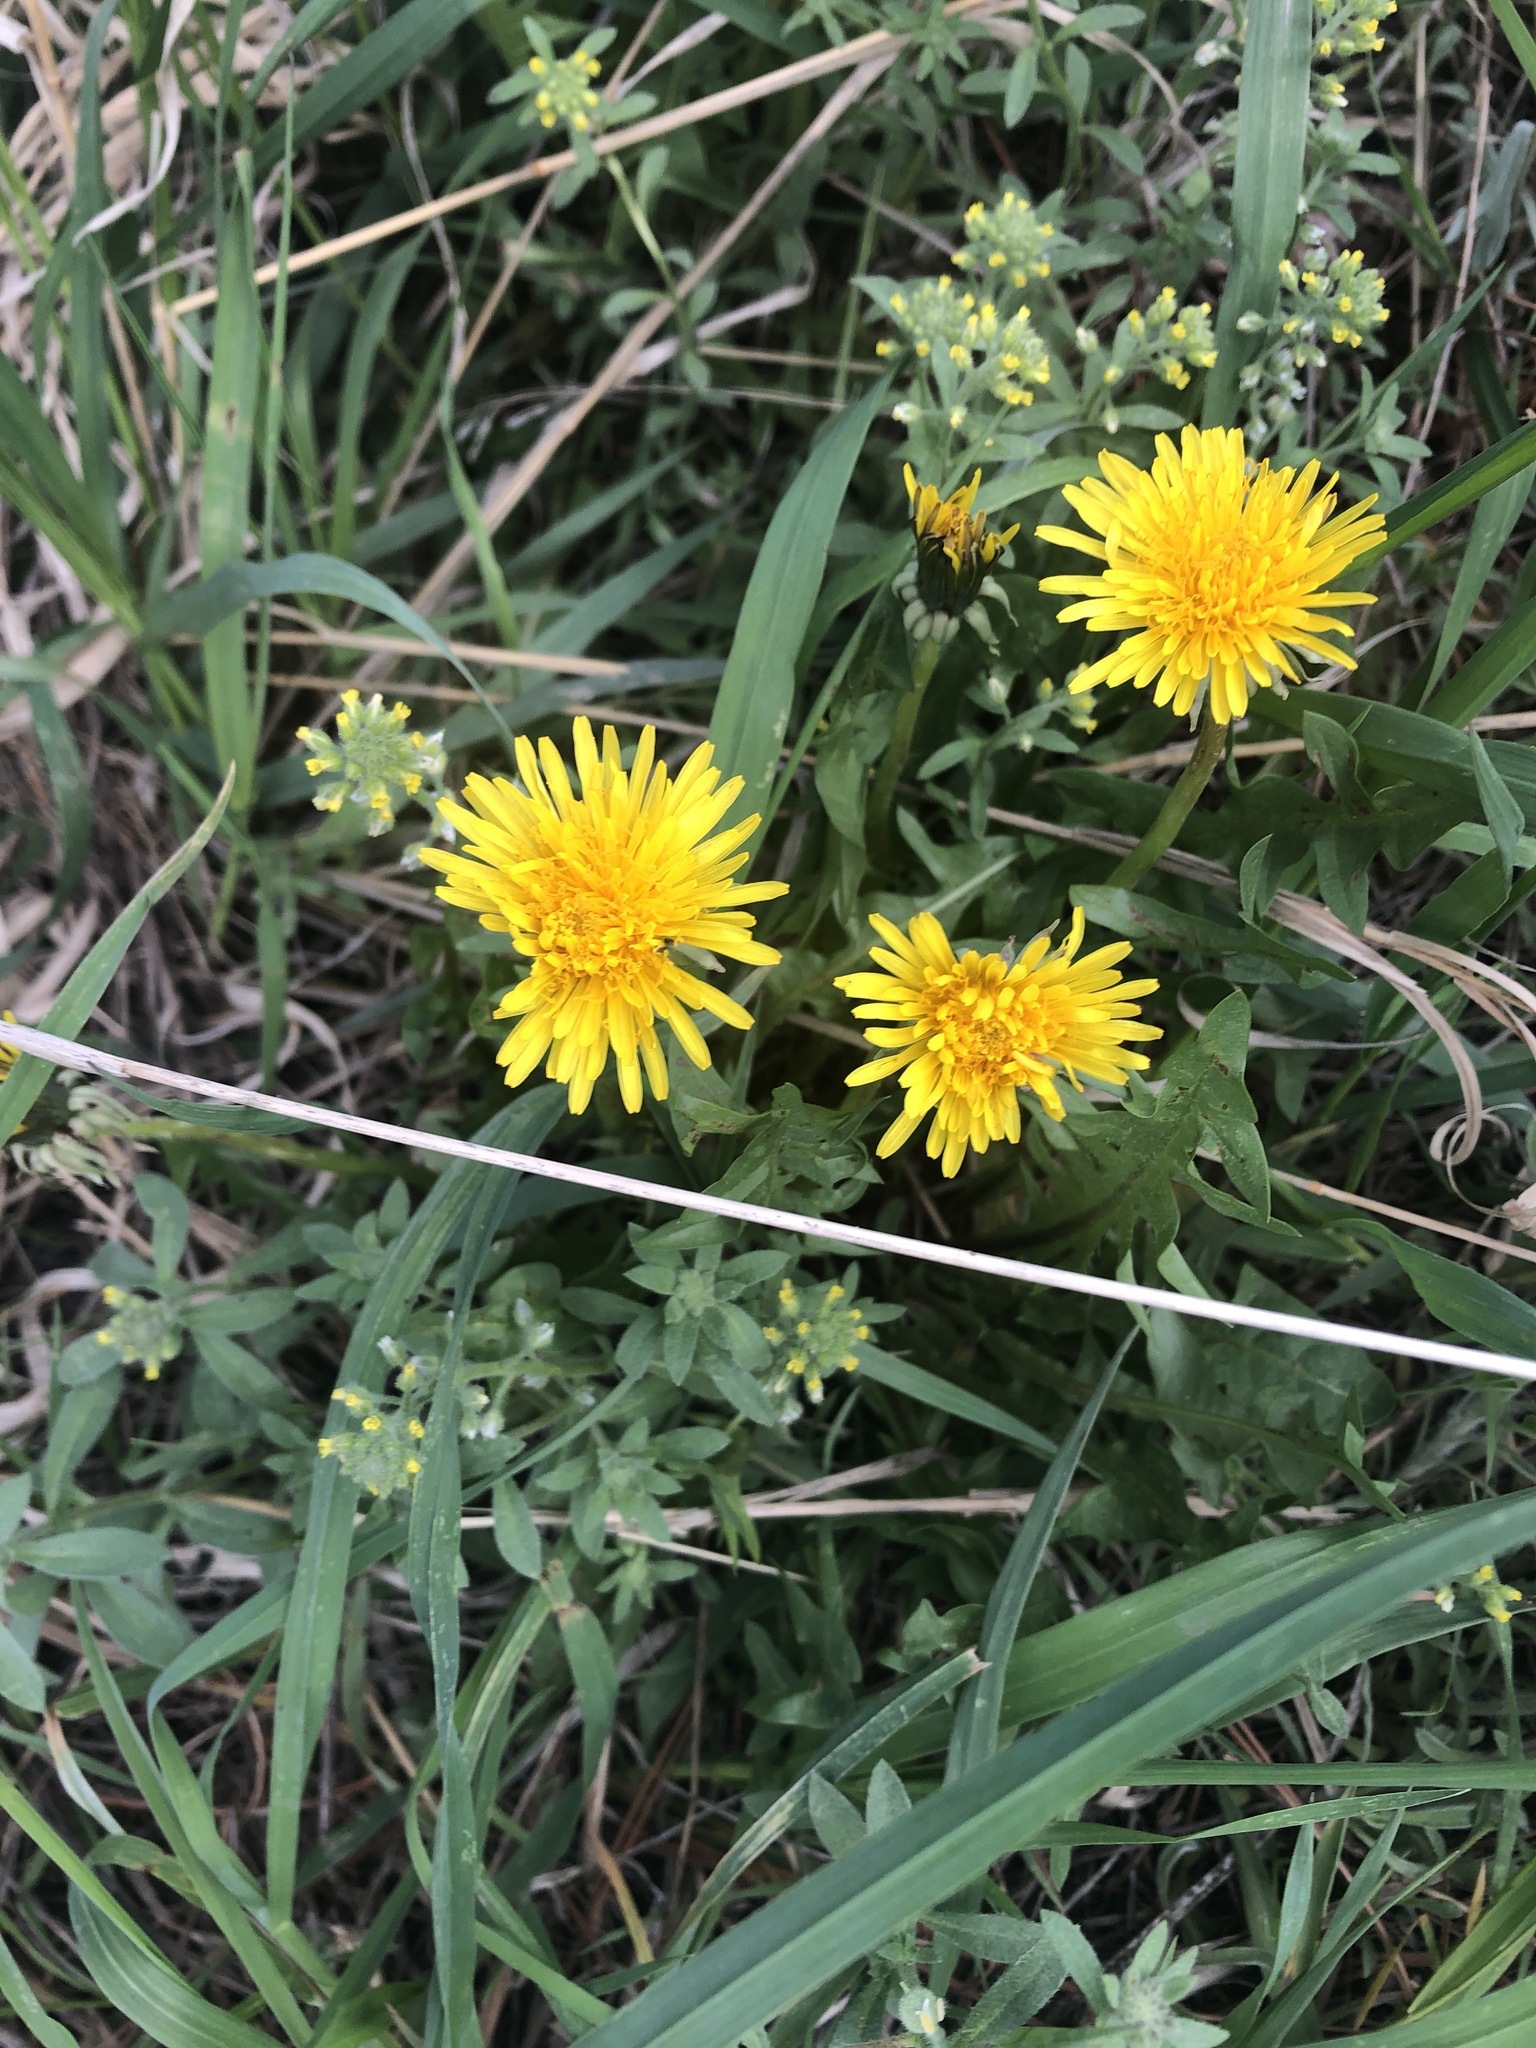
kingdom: Plantae
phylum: Tracheophyta
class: Magnoliopsida
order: Asterales
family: Asteraceae
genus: Taraxacum
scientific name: Taraxacum officinale
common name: Common dandelion
